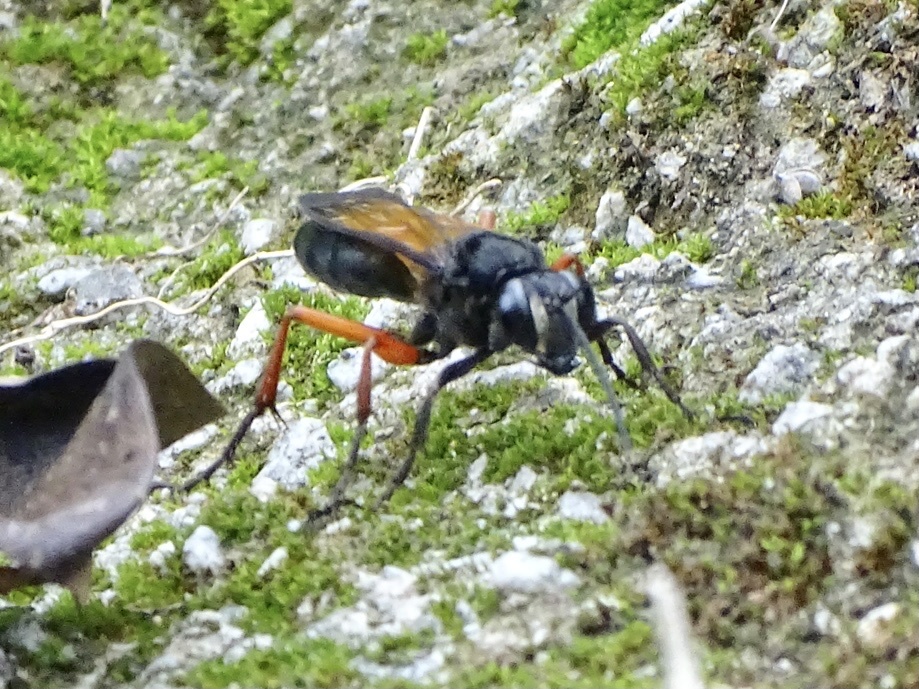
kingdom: Animalia
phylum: Arthropoda
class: Insecta
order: Hymenoptera
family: Sphecidae
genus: Sphex
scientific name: Sphex subtruncatus
